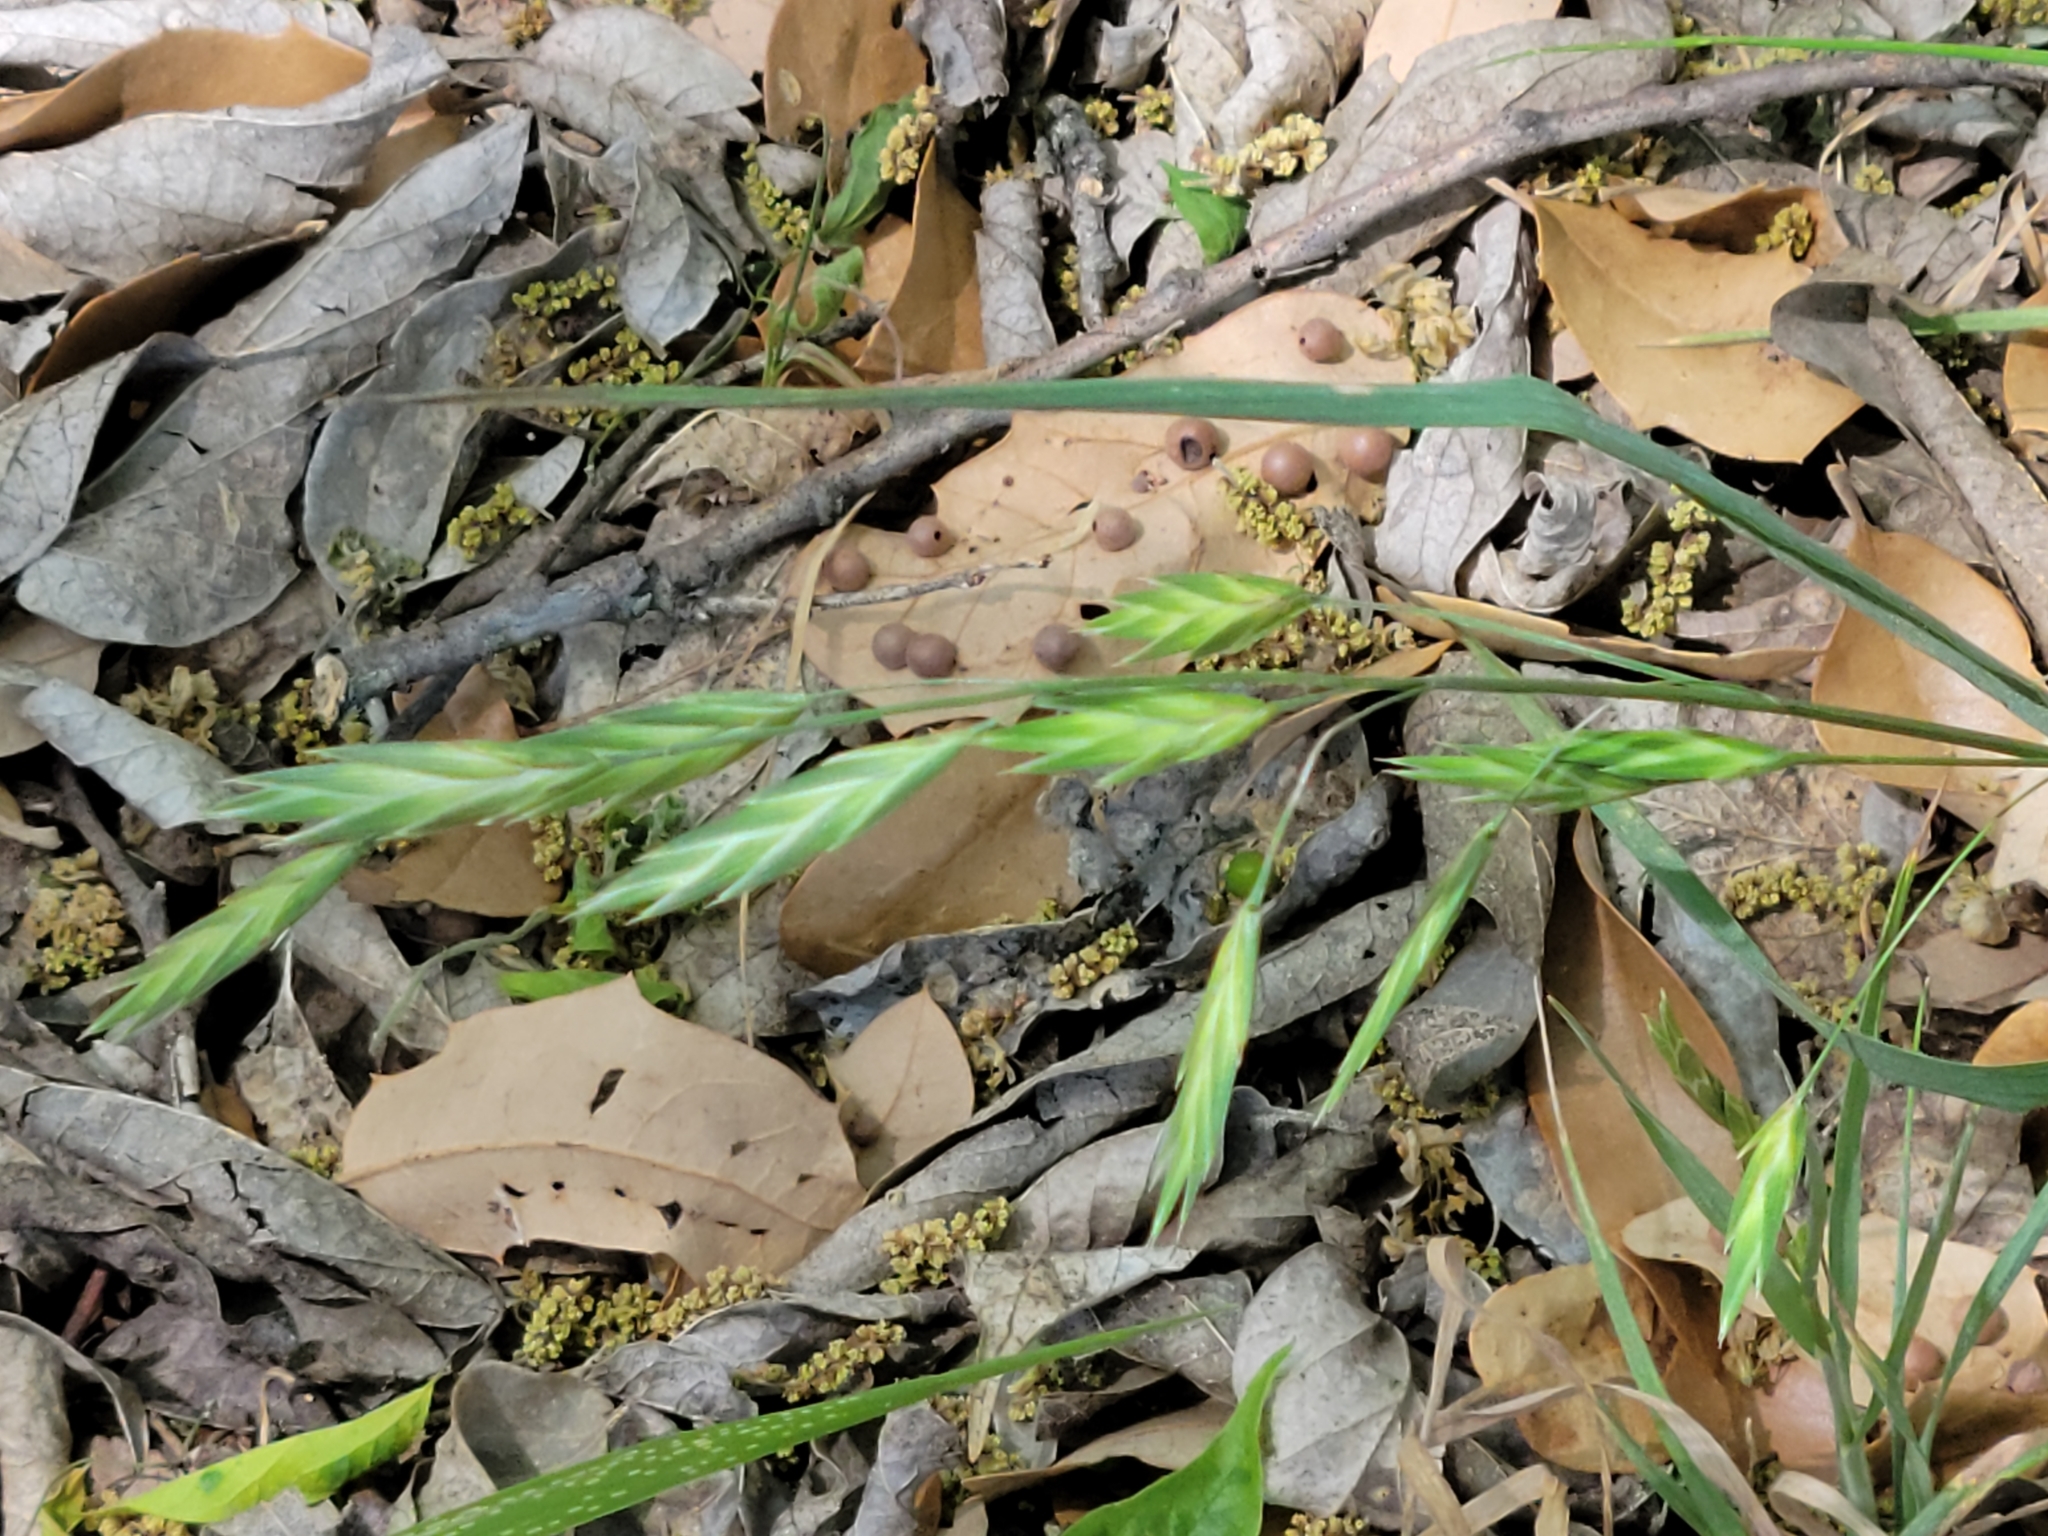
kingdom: Plantae
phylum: Tracheophyta
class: Liliopsida
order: Poales
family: Poaceae
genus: Bromus
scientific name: Bromus catharticus
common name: Rescuegrass
